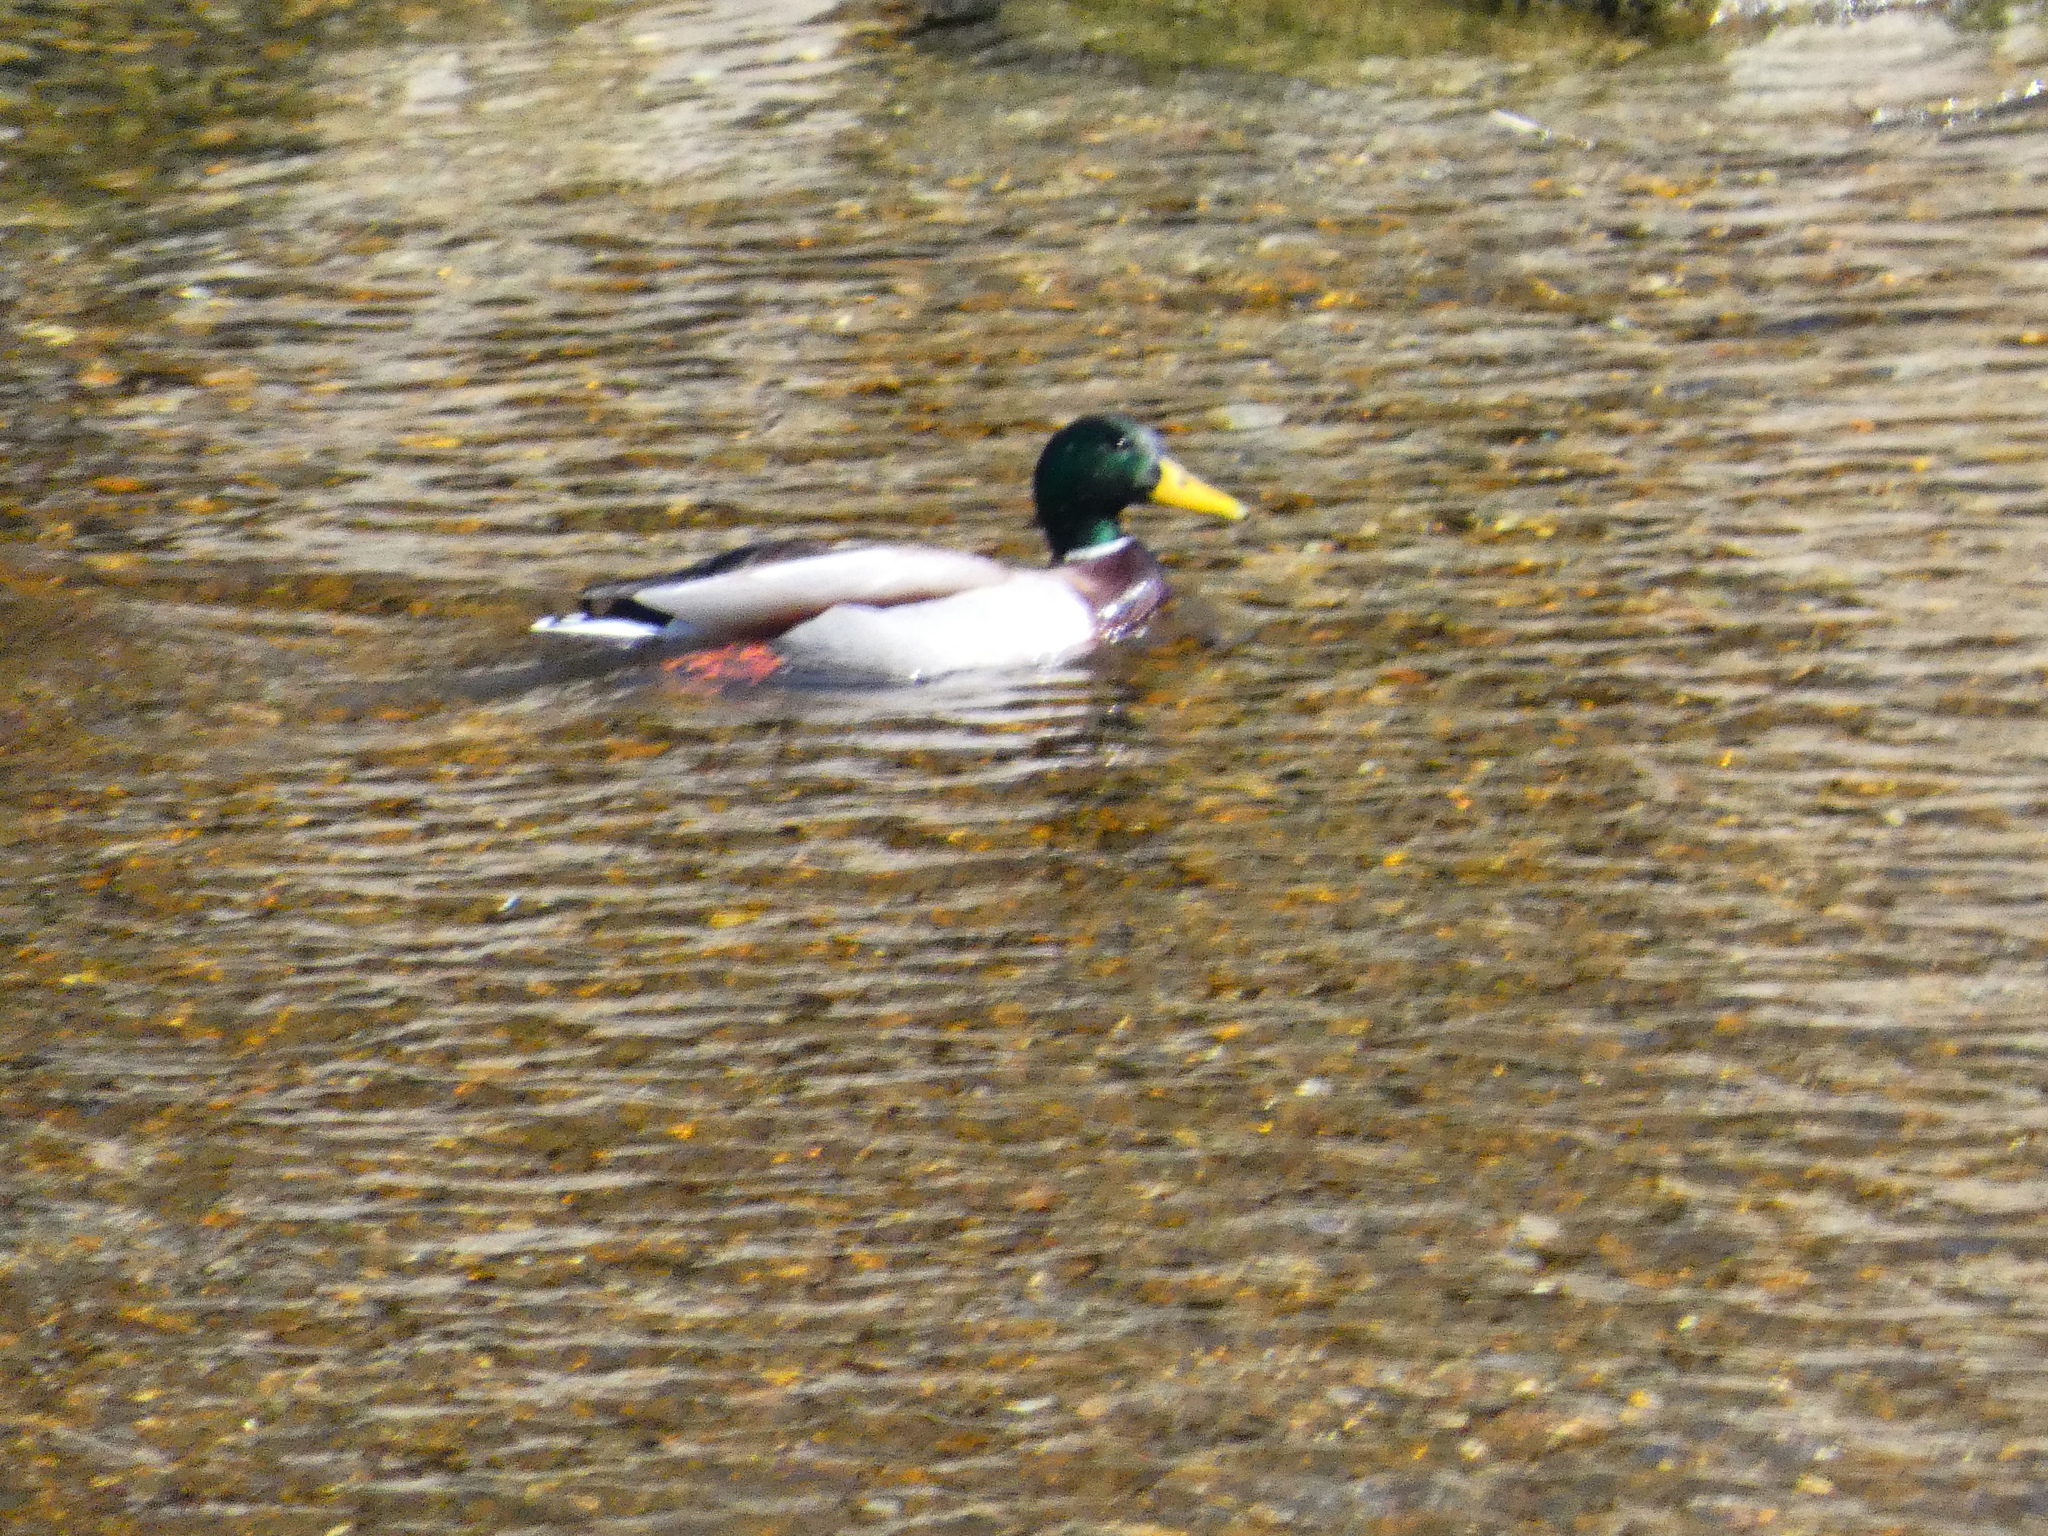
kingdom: Animalia
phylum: Chordata
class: Aves
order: Anseriformes
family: Anatidae
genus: Anas
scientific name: Anas platyrhynchos
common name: Mallard
